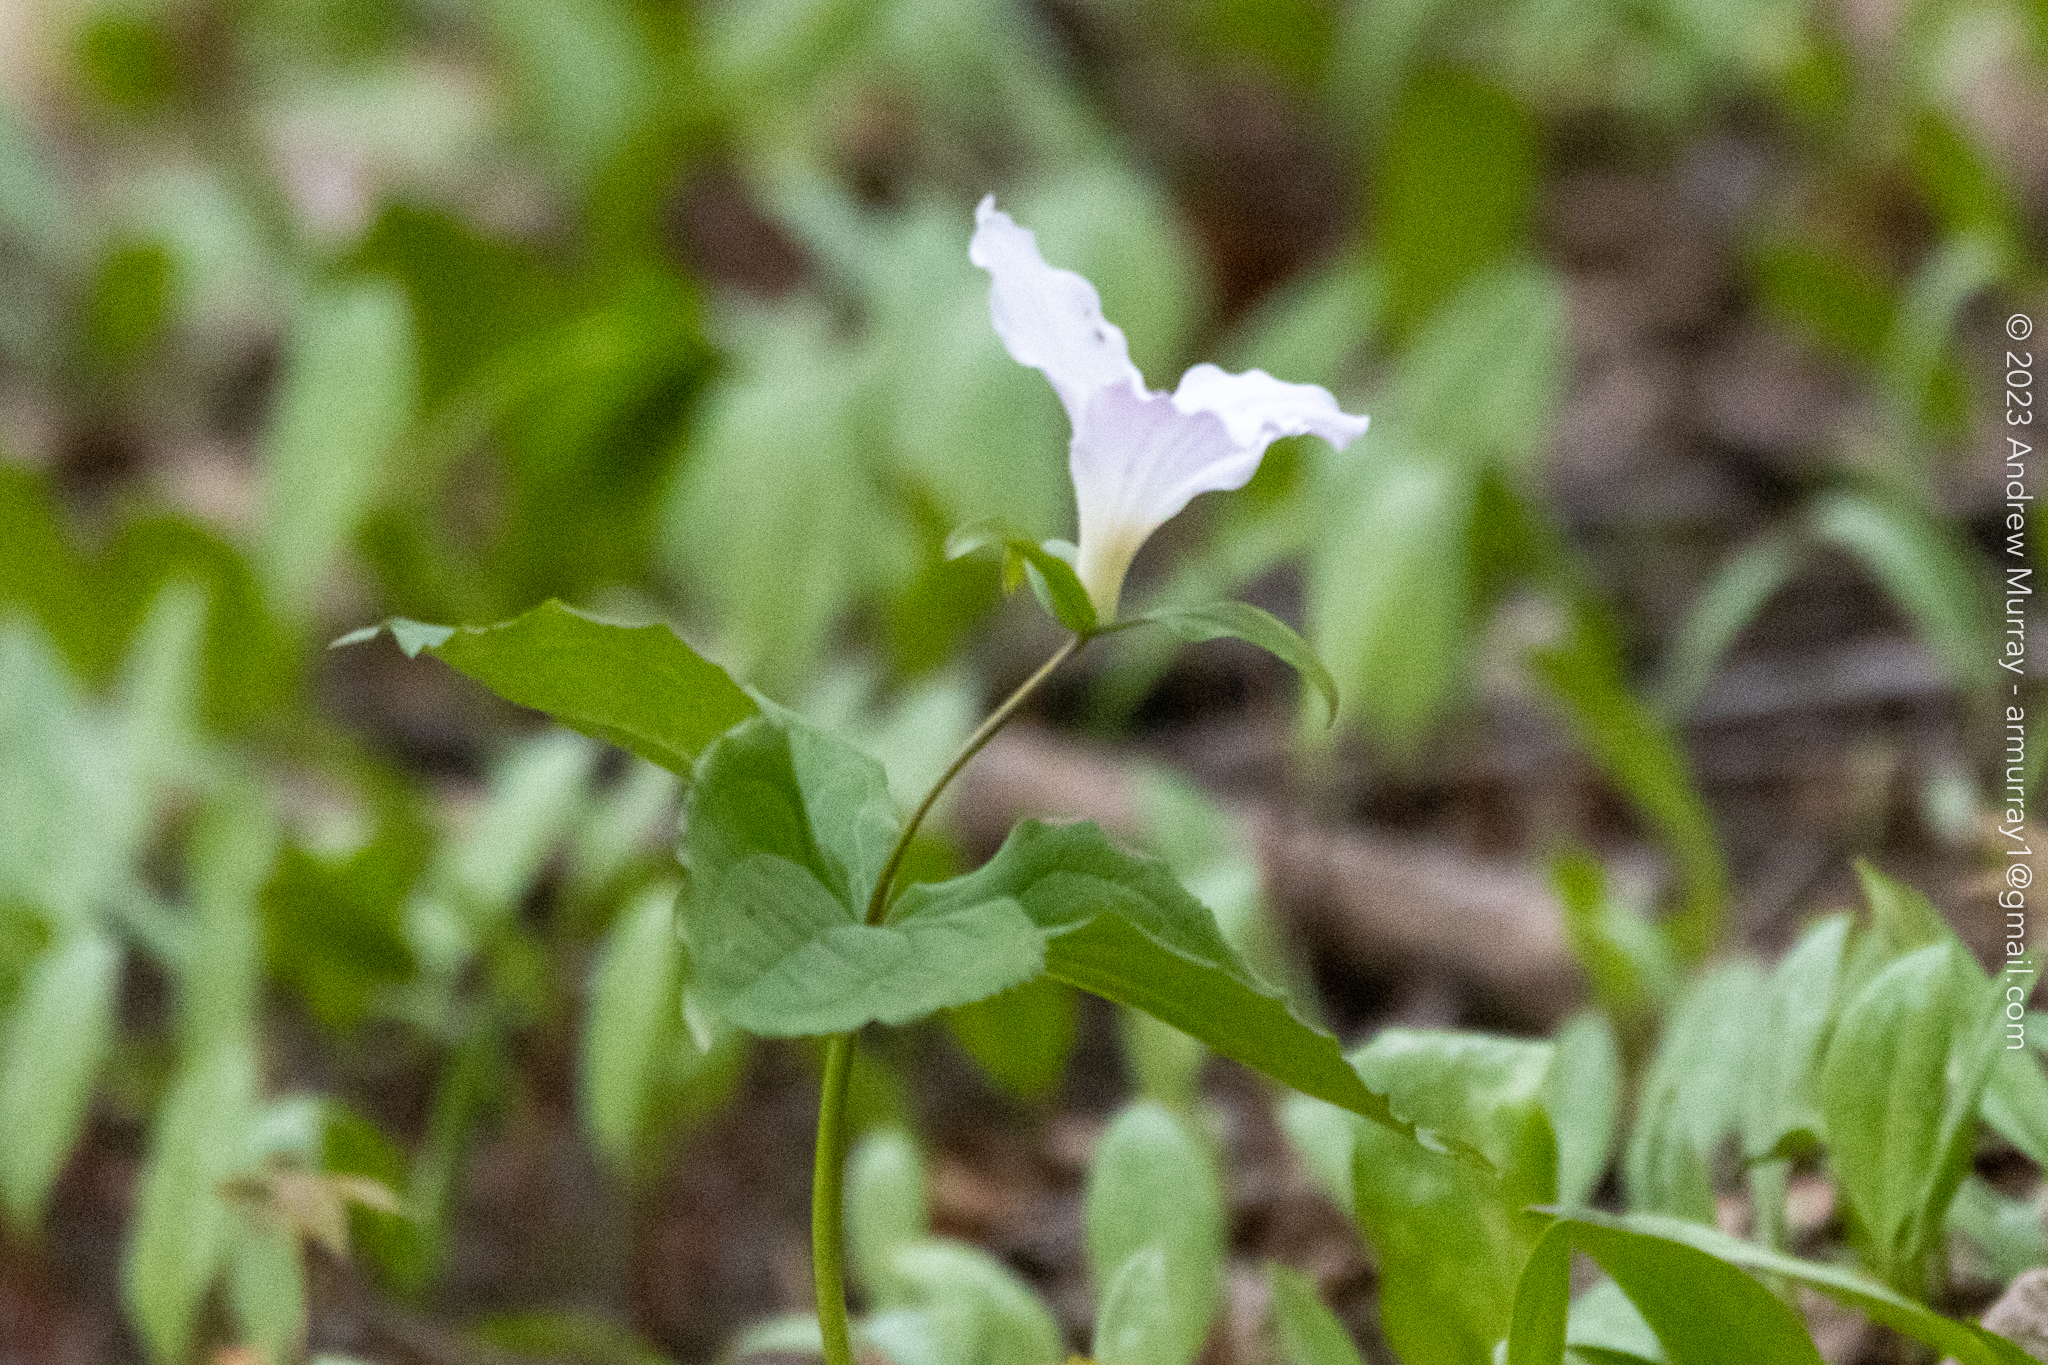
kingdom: Plantae
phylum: Tracheophyta
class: Liliopsida
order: Liliales
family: Melanthiaceae
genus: Trillium
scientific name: Trillium grandiflorum
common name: Great white trillium
